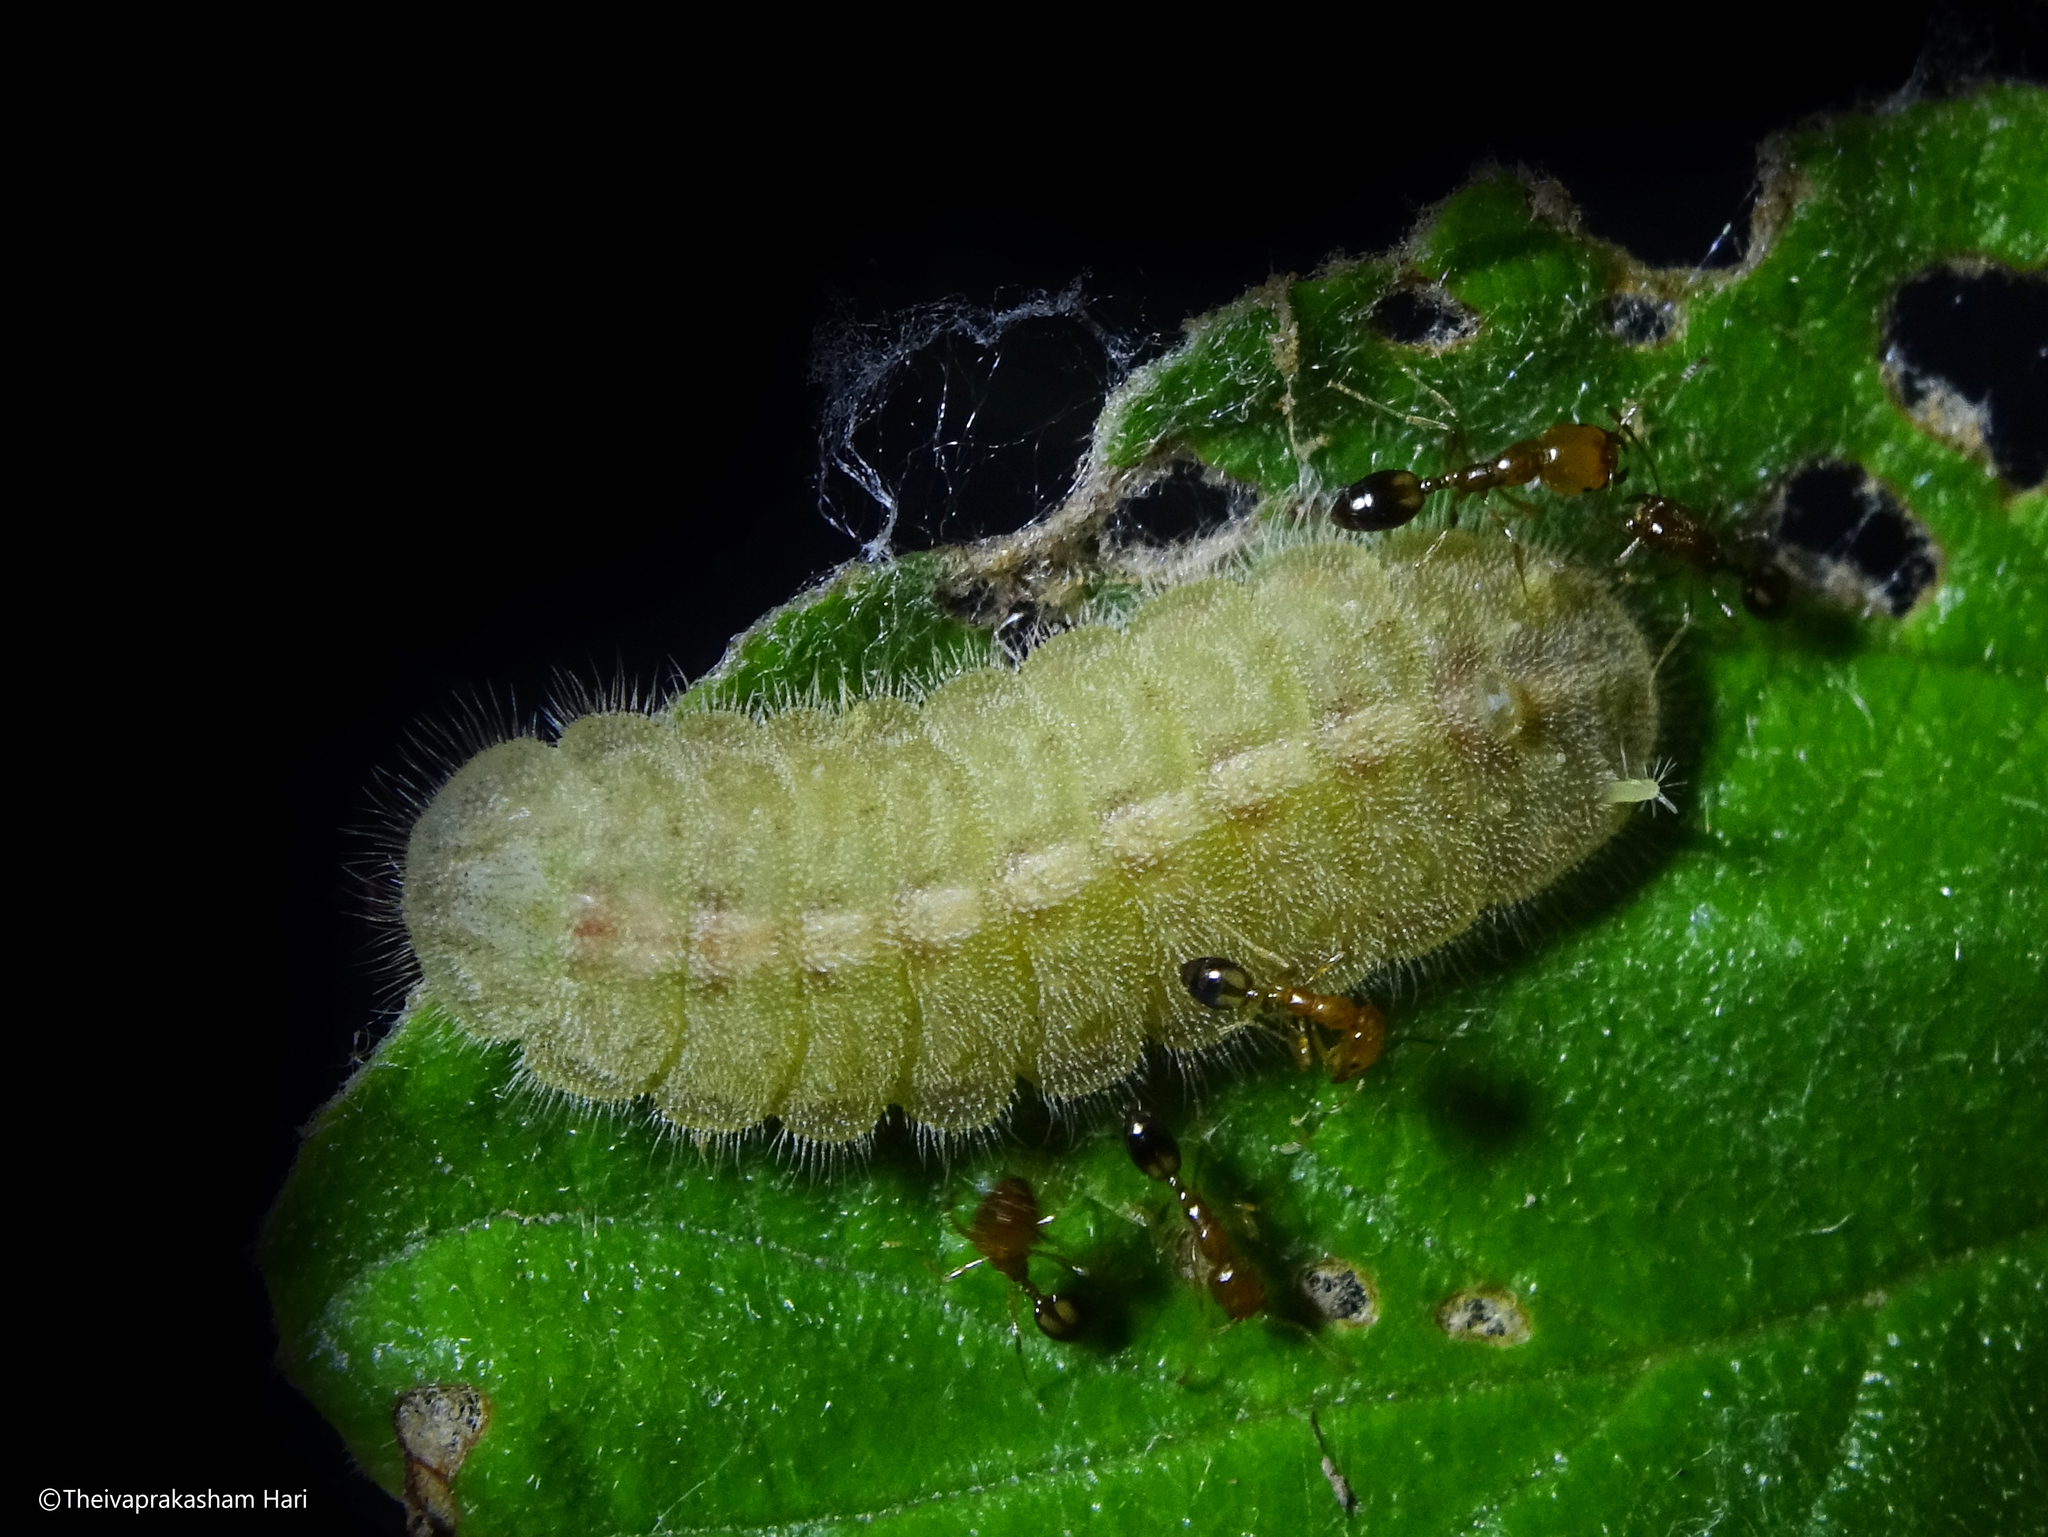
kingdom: Animalia
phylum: Arthropoda
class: Insecta
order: Lepidoptera
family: Lycaenidae
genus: Tarucus
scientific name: Tarucus nara
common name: Striped pierrot
